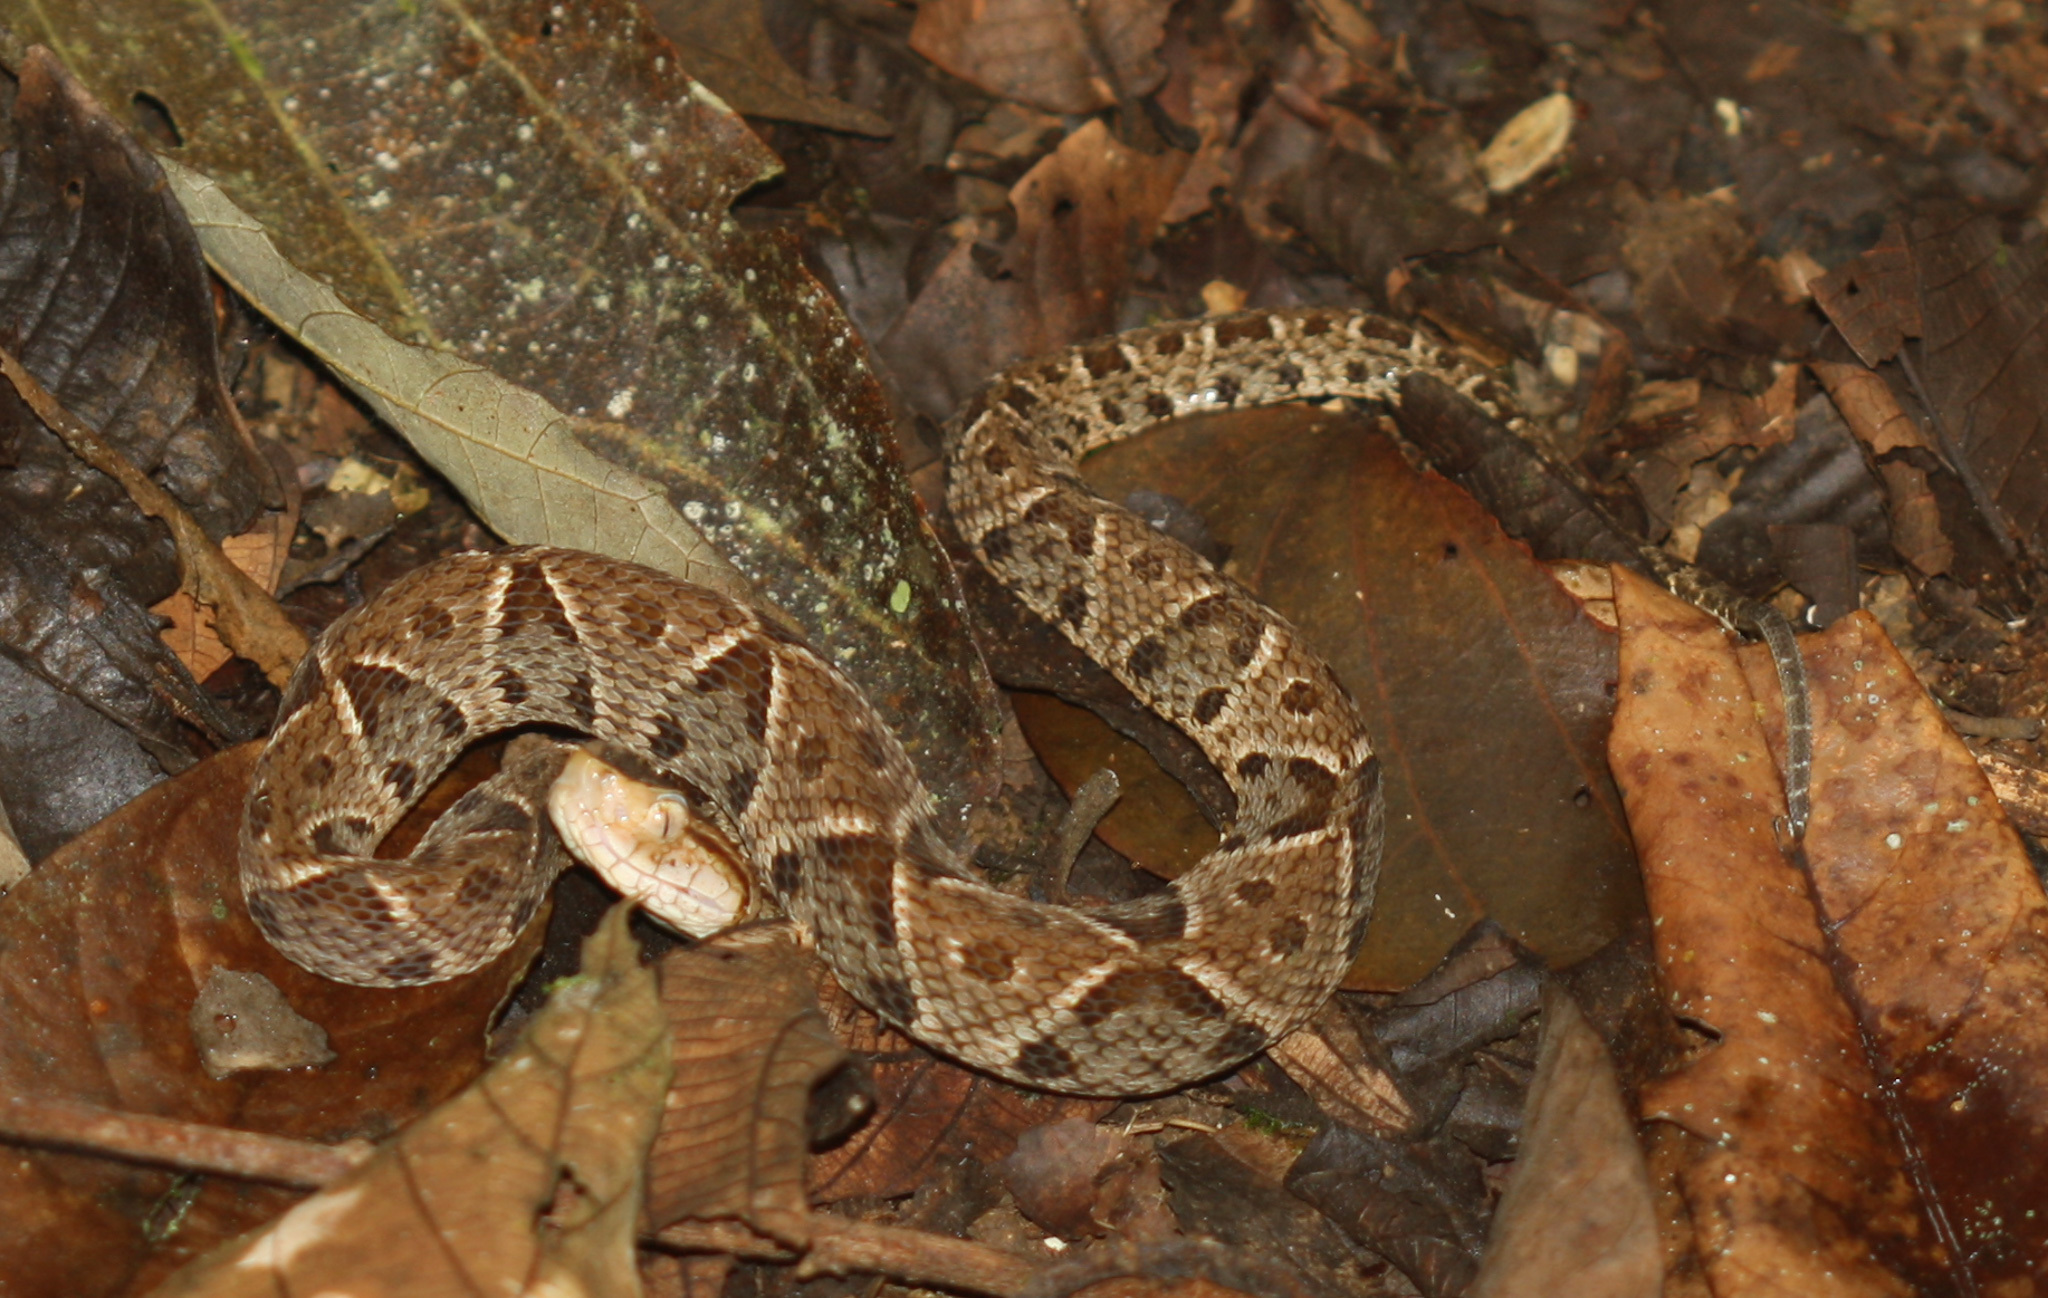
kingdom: Animalia
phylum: Chordata
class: Squamata
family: Viperidae
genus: Bothrops
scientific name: Bothrops asper
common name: Terciopelo
